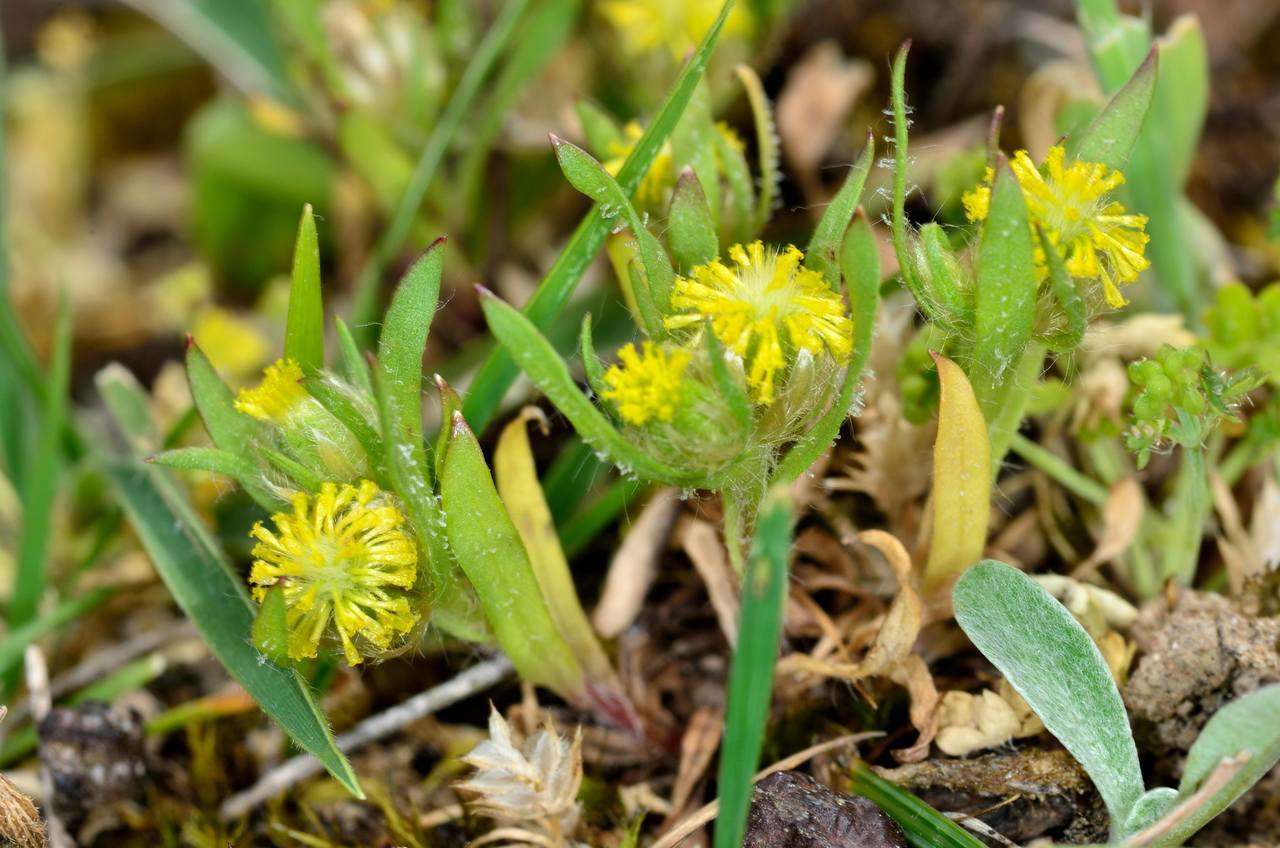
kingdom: Plantae
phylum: Tracheophyta
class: Magnoliopsida
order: Asterales
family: Asteraceae
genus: Triptilodiscus
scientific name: Triptilodiscus pygmaeus
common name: Common sunray
